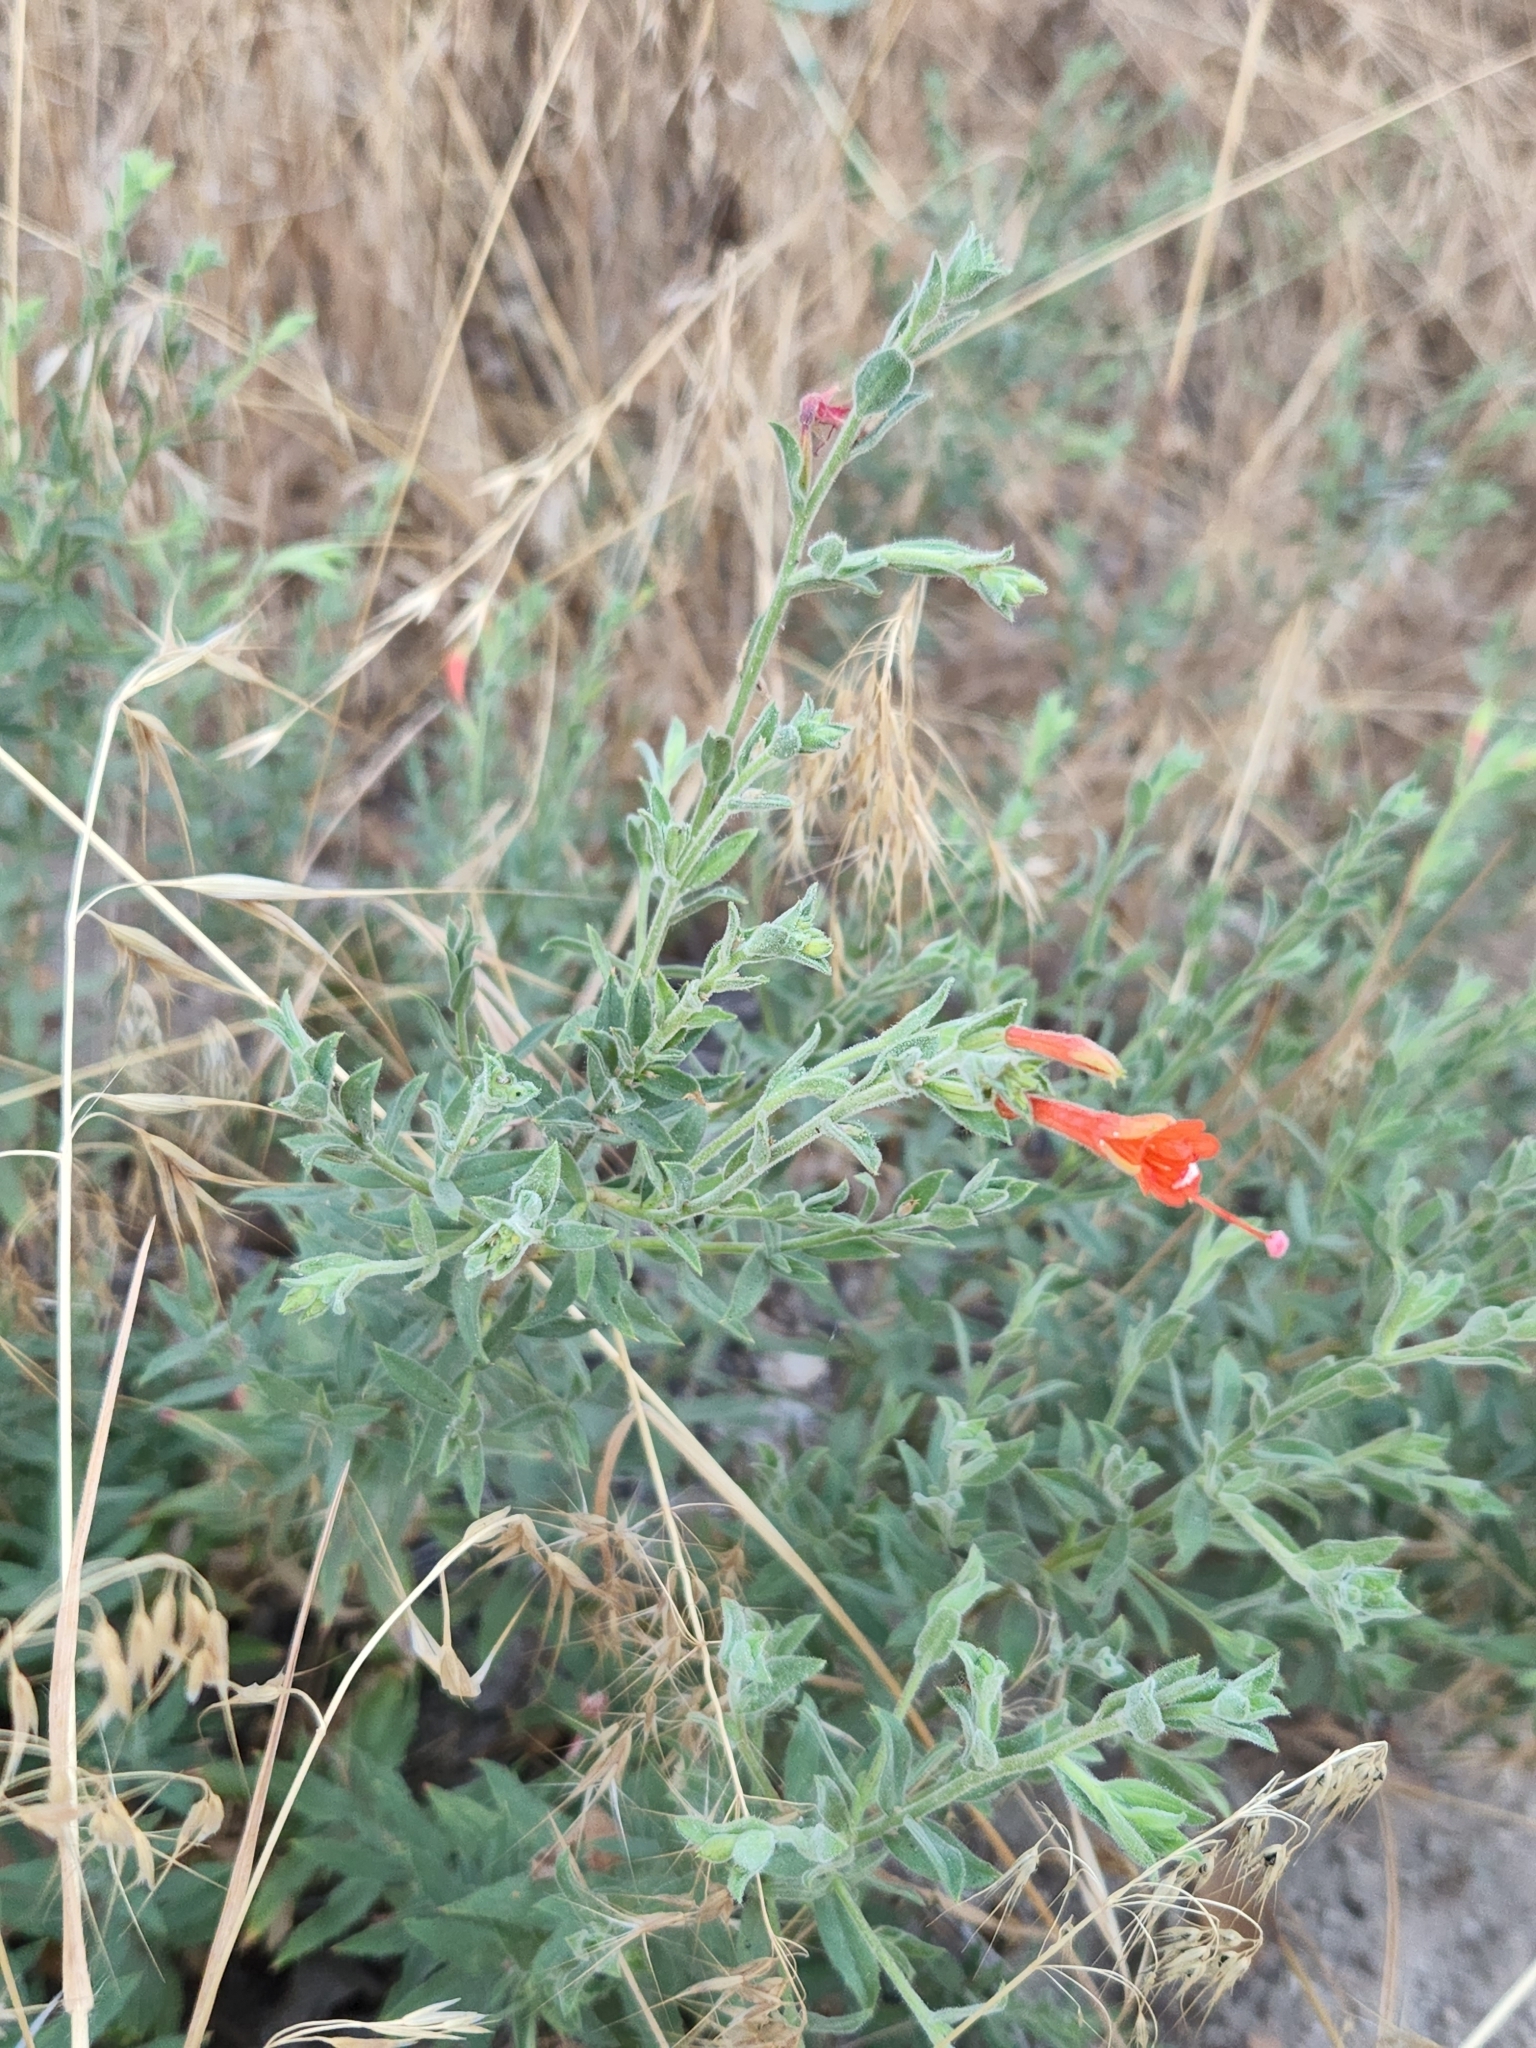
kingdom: Plantae
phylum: Tracheophyta
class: Magnoliopsida
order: Myrtales
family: Onagraceae
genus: Epilobium
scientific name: Epilobium canum
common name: California-fuchsia
